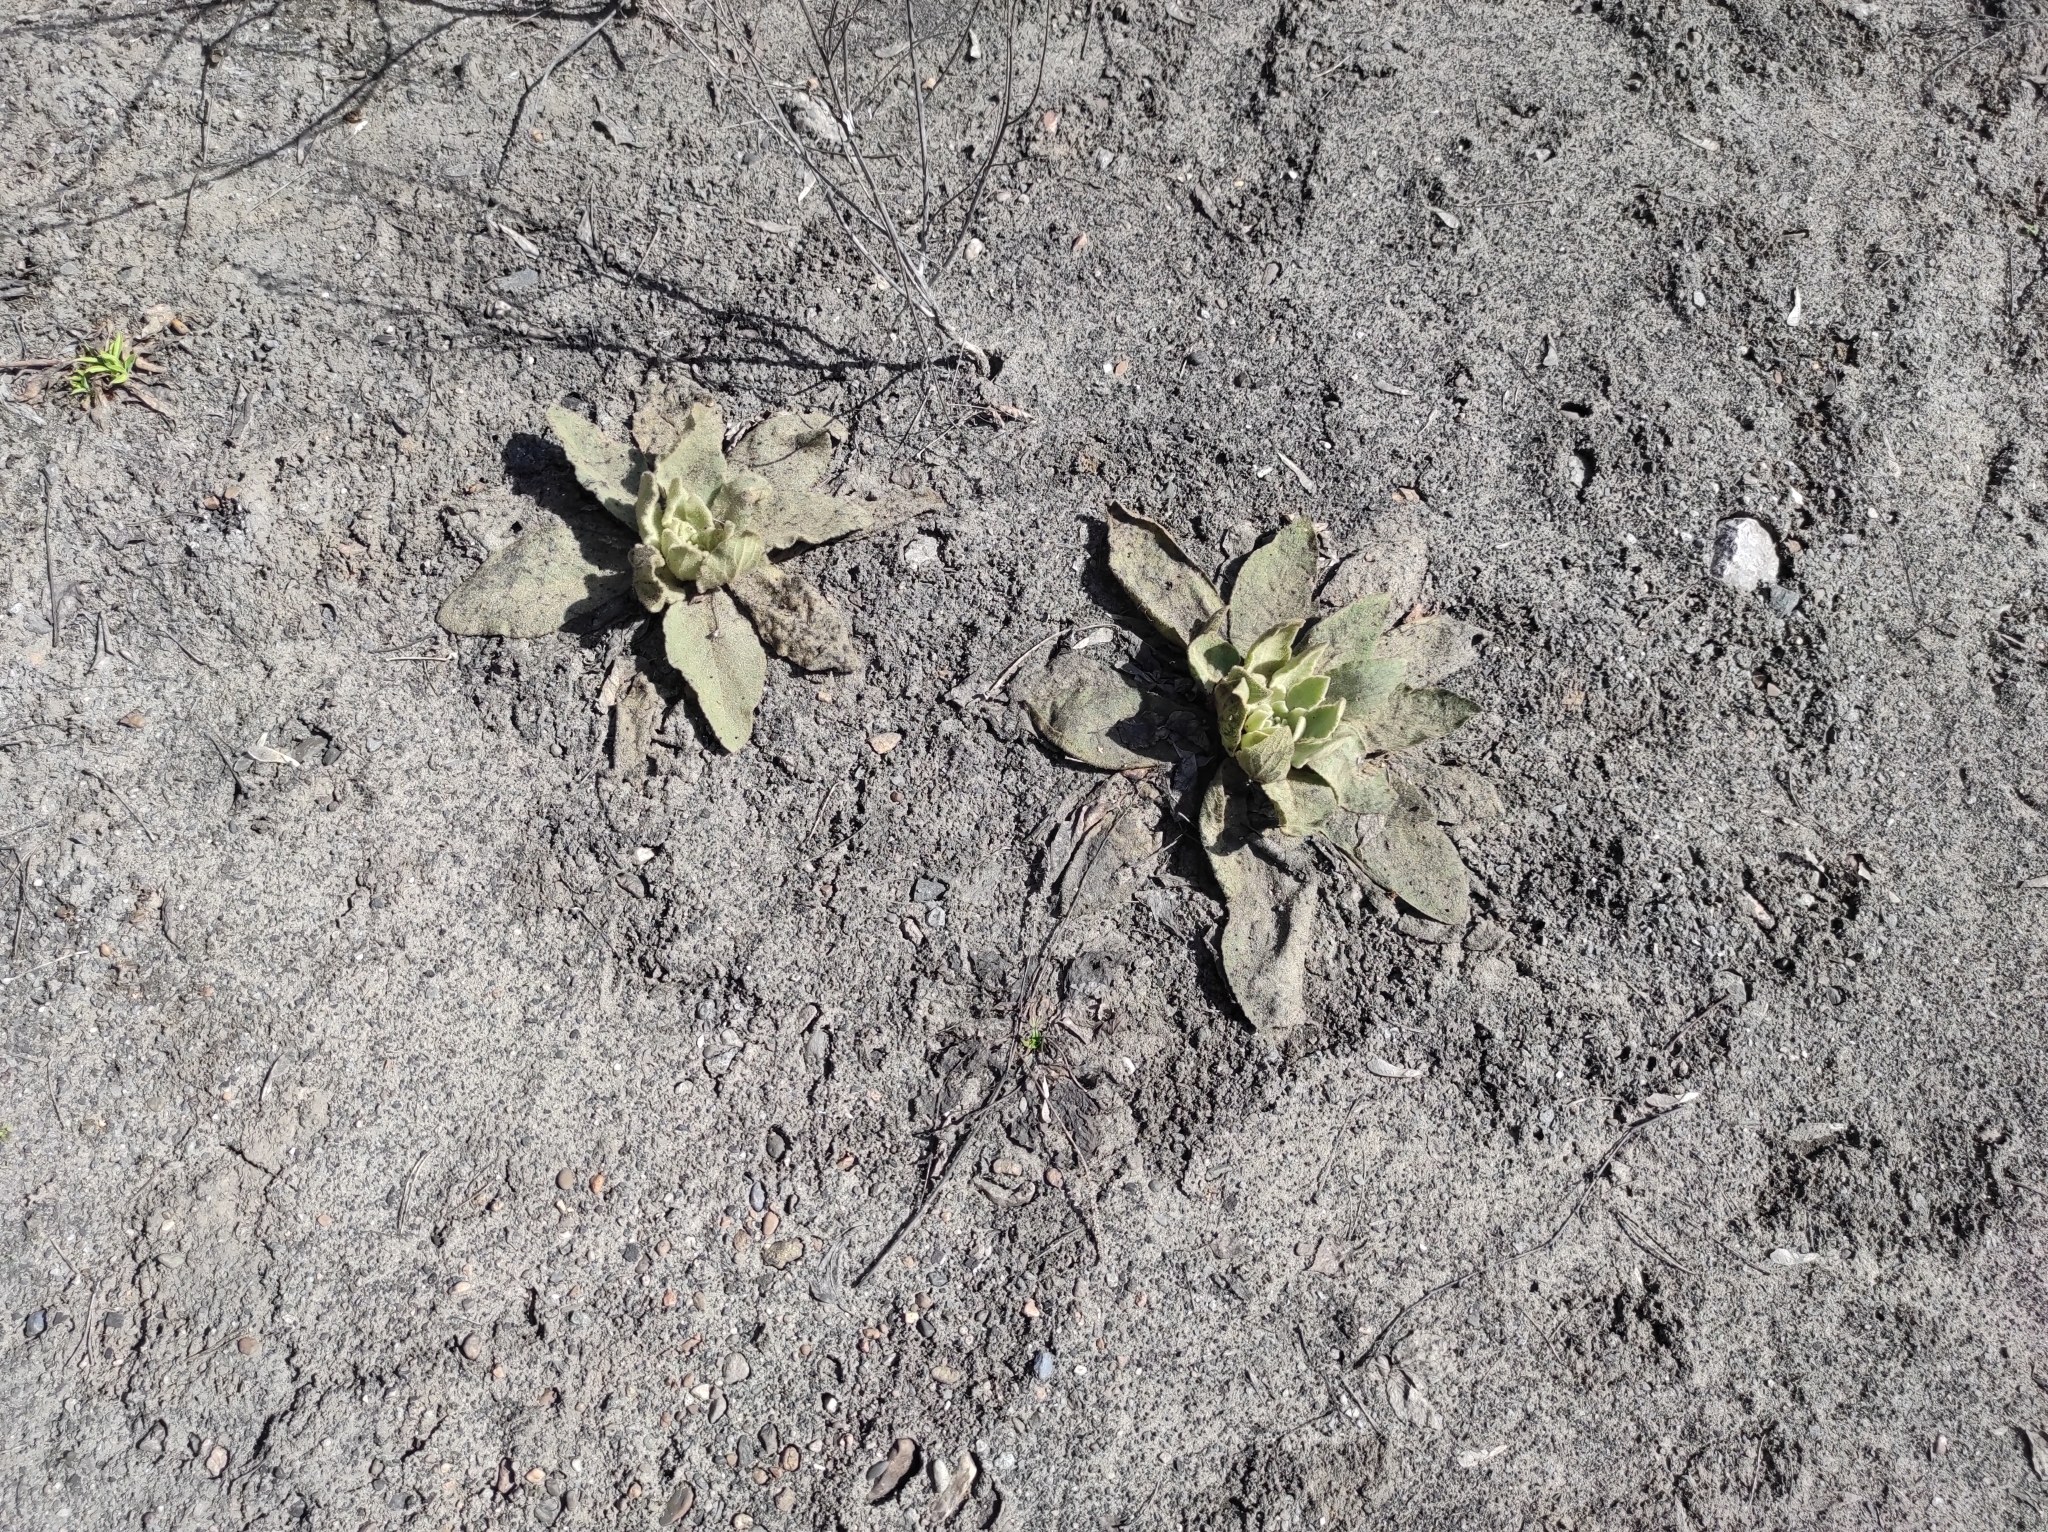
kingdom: Plantae
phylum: Tracheophyta
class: Magnoliopsida
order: Lamiales
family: Scrophulariaceae
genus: Verbascum
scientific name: Verbascum thapsus
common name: Common mullein
